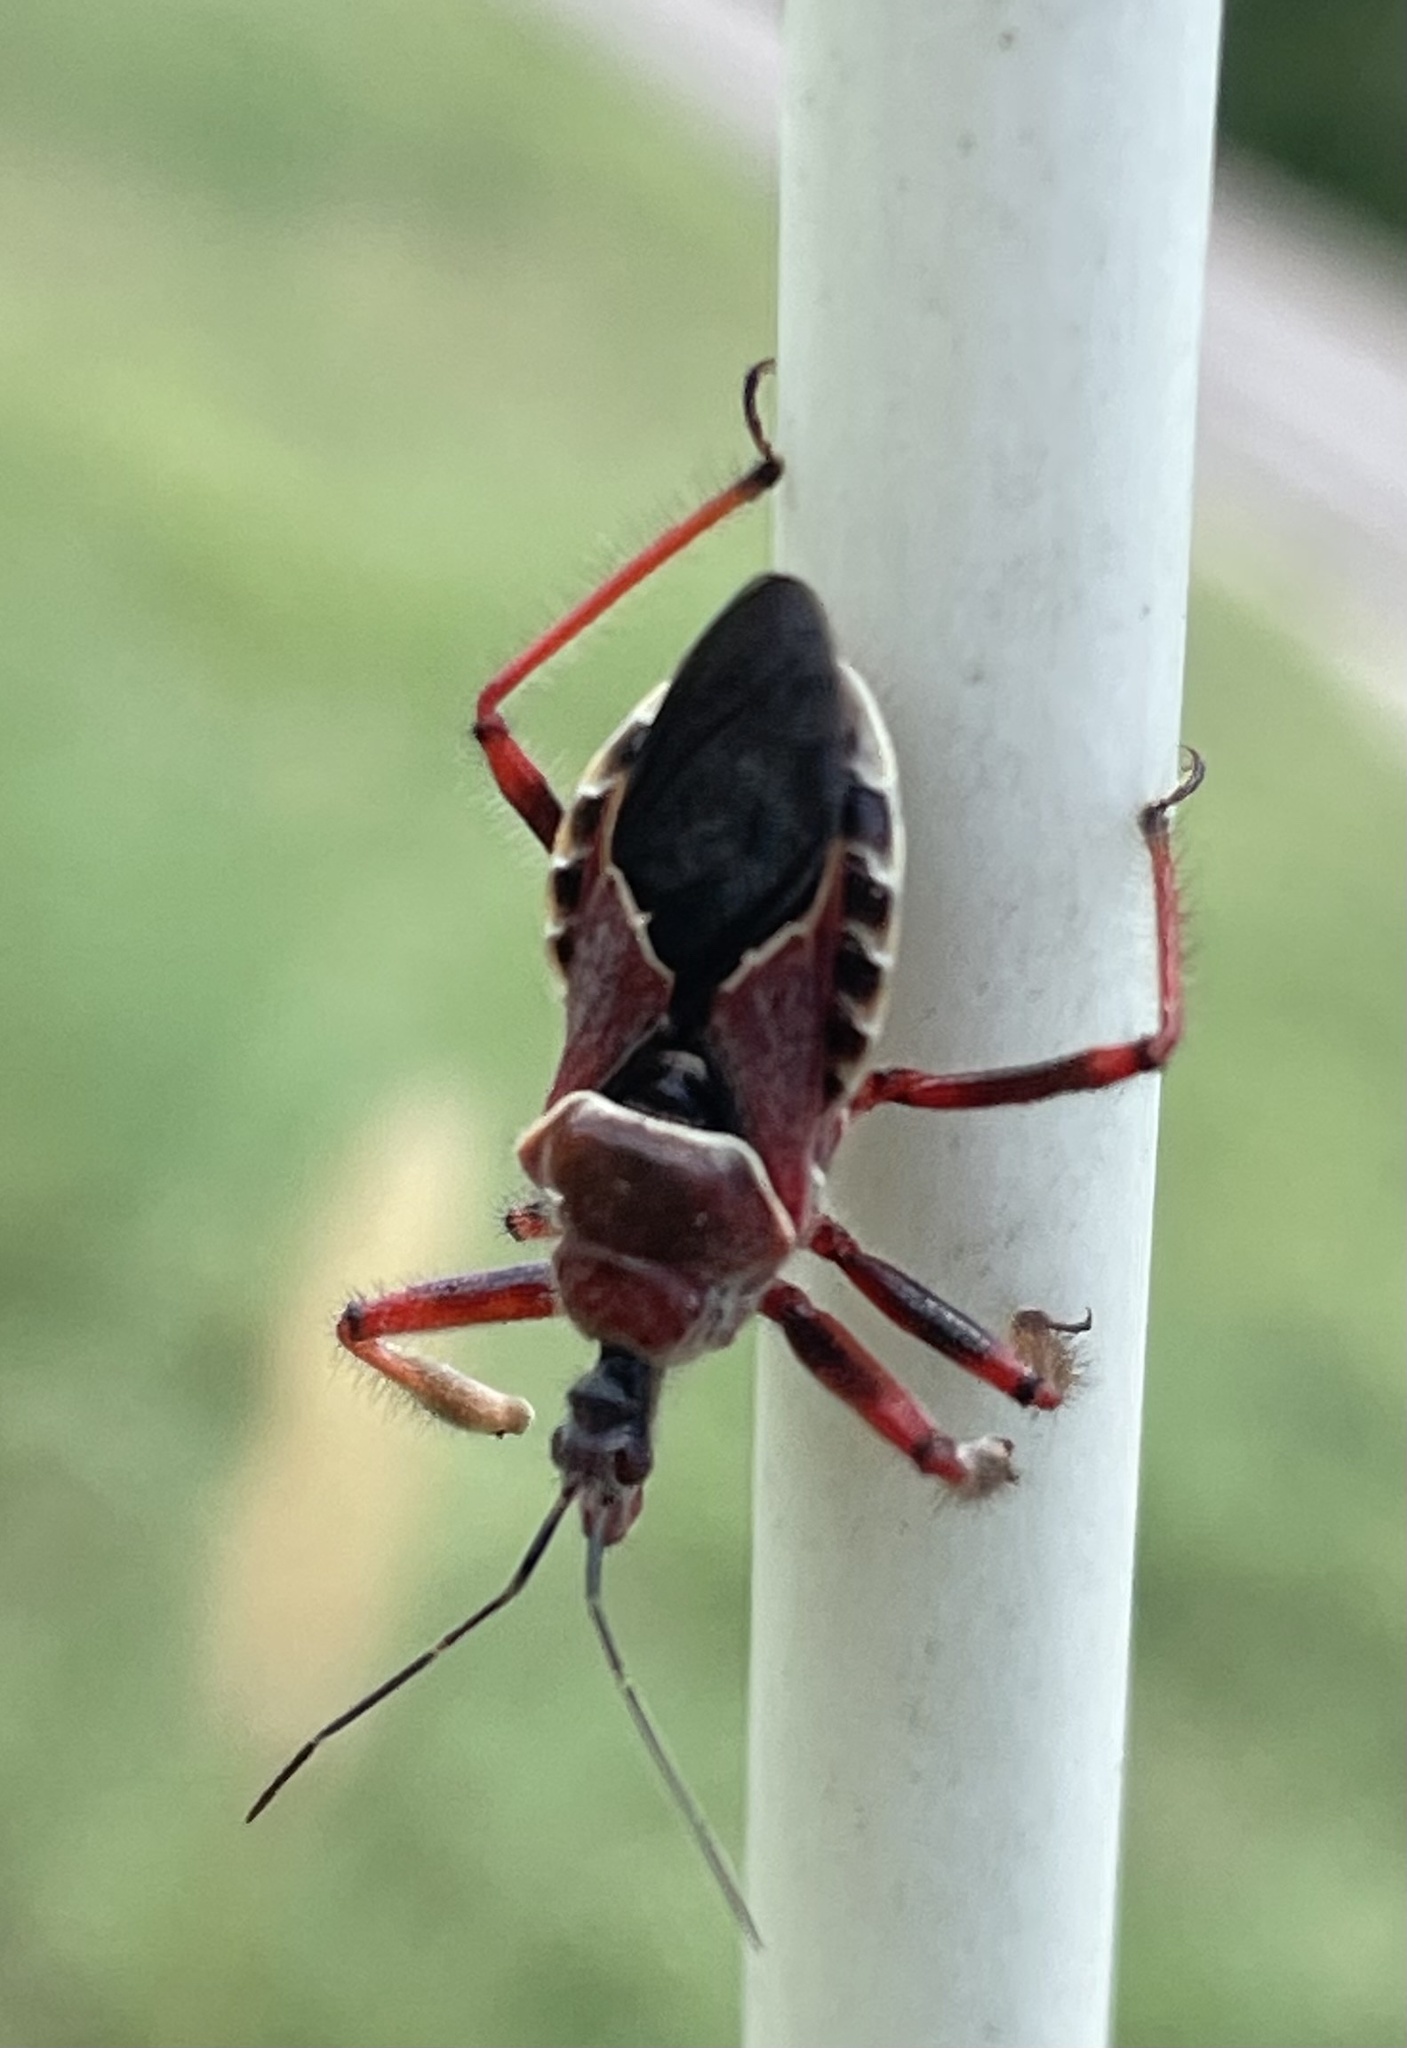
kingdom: Animalia
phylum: Arthropoda
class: Insecta
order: Hemiptera
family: Reduviidae
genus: Apiomerus
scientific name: Apiomerus spissipes
